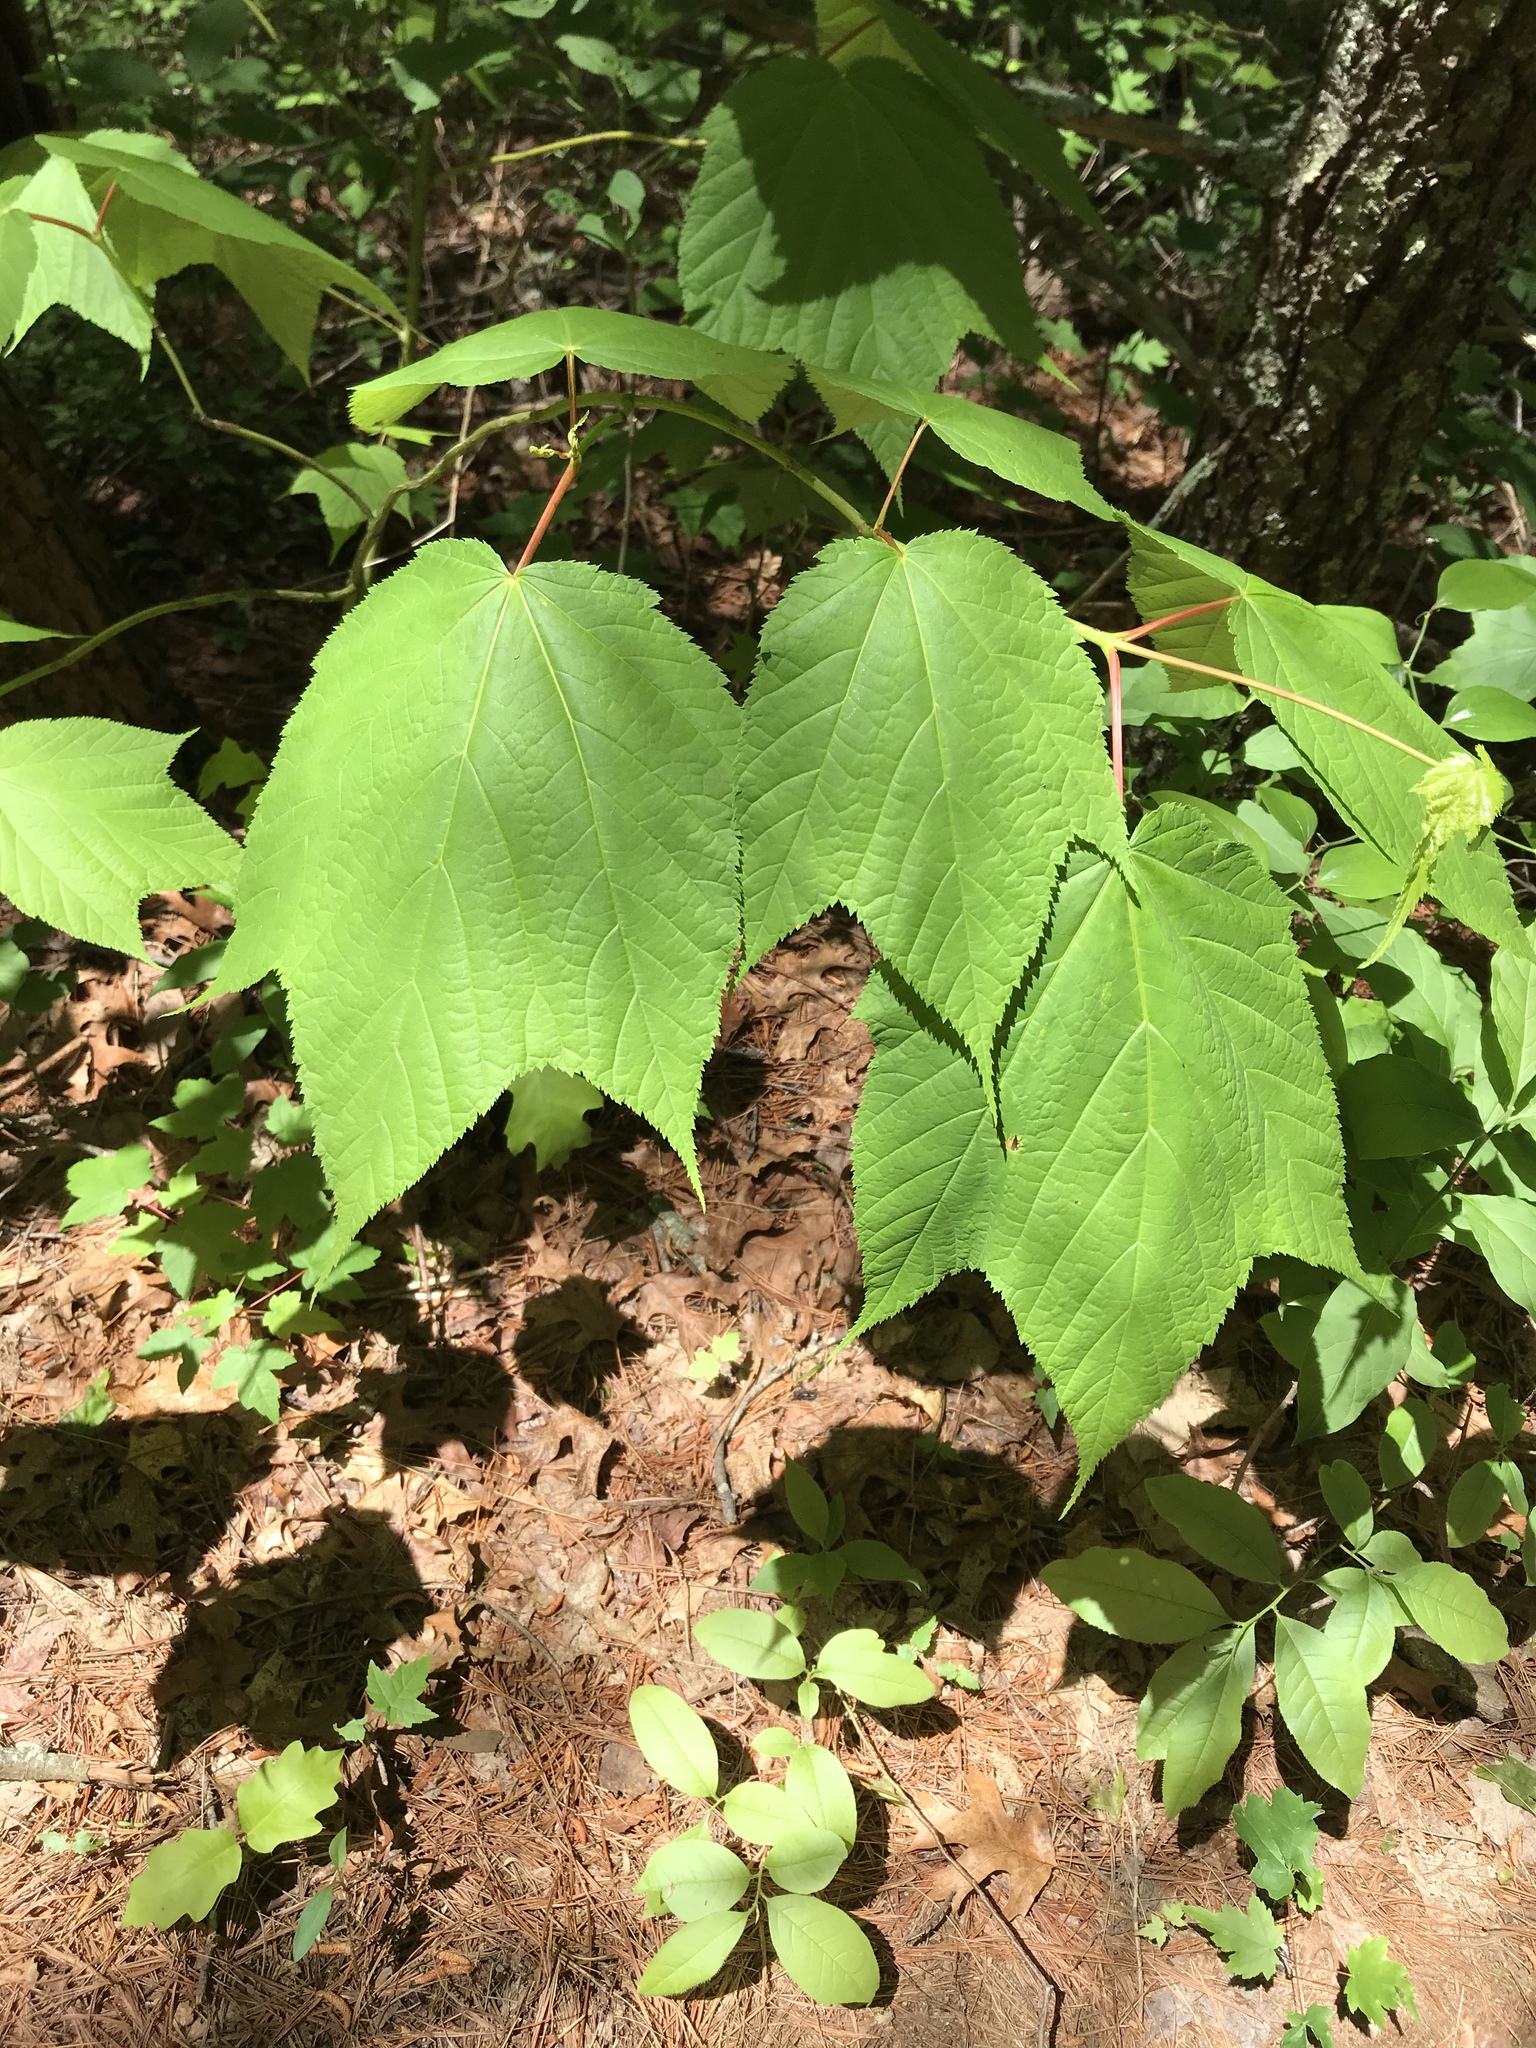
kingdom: Plantae
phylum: Tracheophyta
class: Magnoliopsida
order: Sapindales
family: Sapindaceae
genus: Acer
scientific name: Acer pensylvanicum
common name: Moosewood
